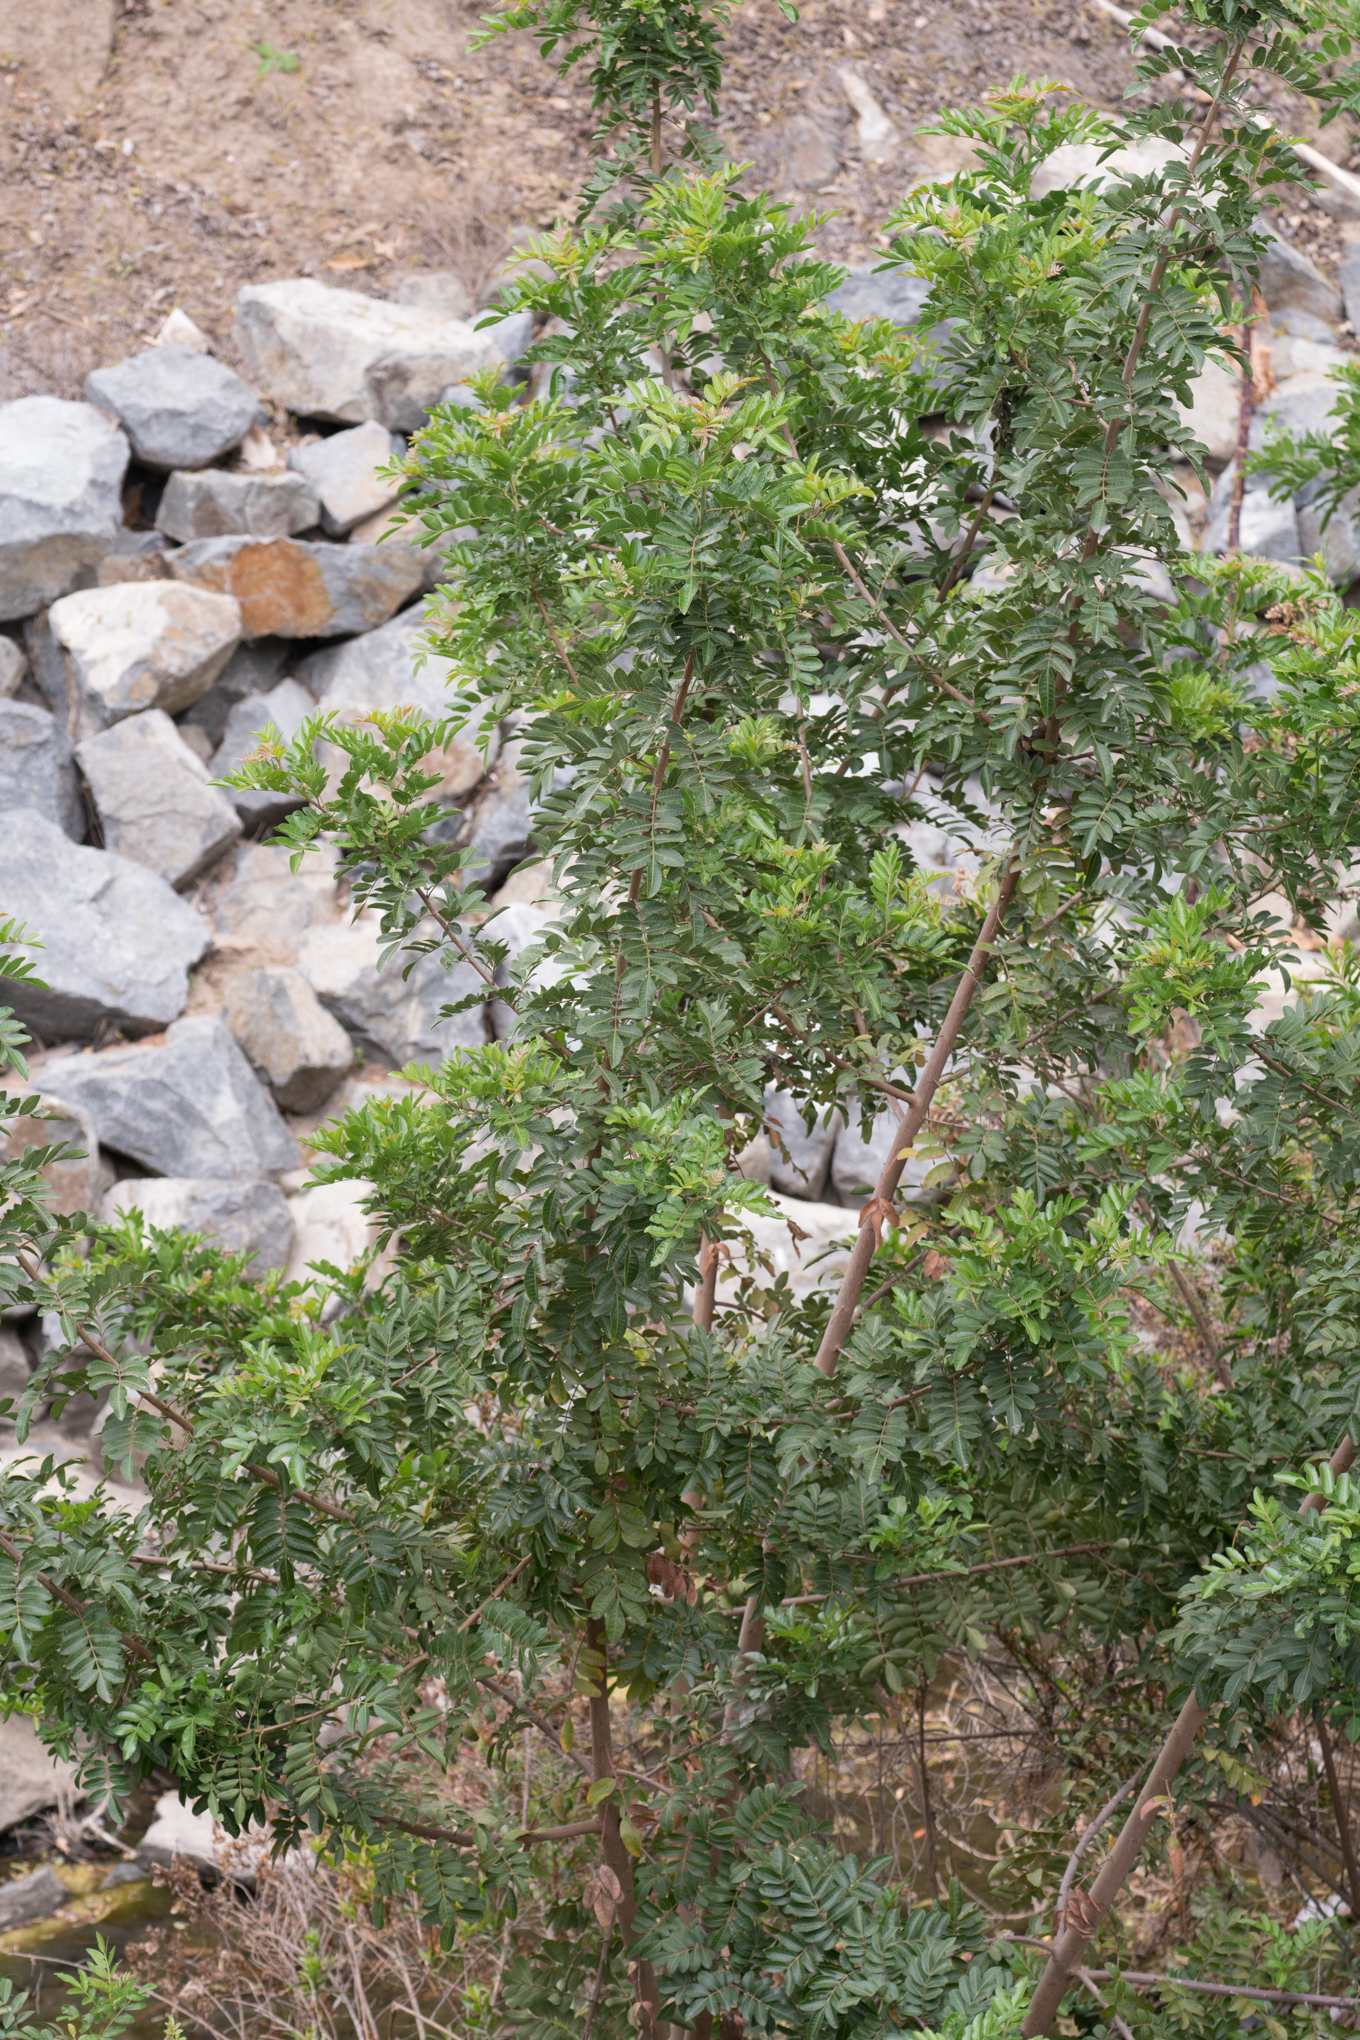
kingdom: Plantae
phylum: Tracheophyta
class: Magnoliopsida
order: Sapindales
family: Anacardiaceae
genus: Schinus
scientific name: Schinus terebinthifolia
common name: Brazilian peppertree
